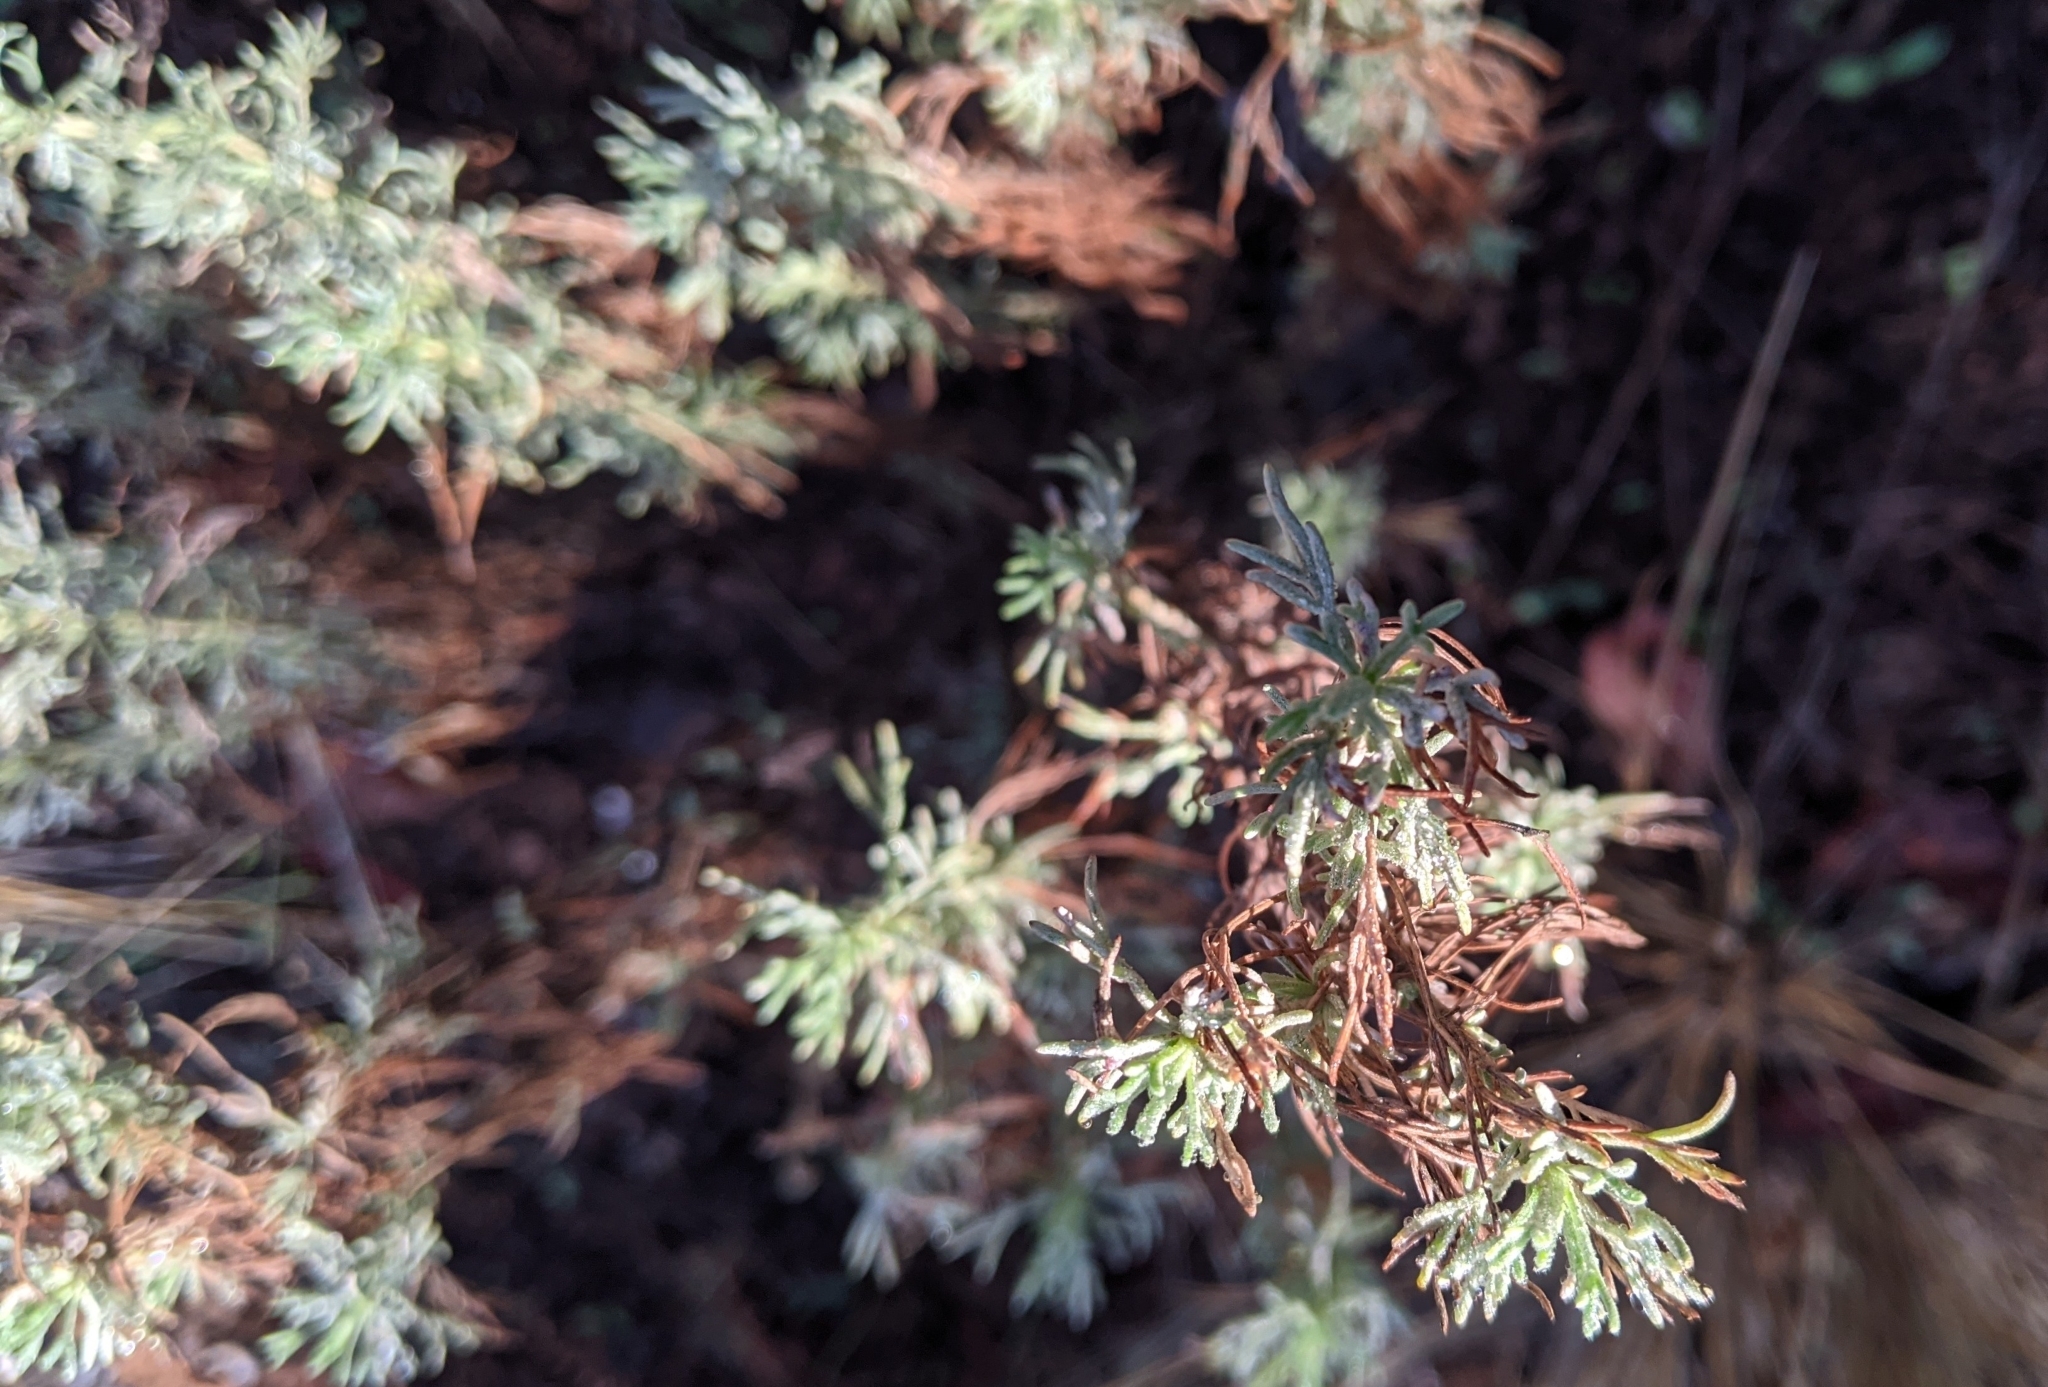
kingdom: Plantae
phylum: Tracheophyta
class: Magnoliopsida
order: Asterales
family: Asteraceae
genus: Artemisia
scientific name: Artemisia californica
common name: California sagebrush
